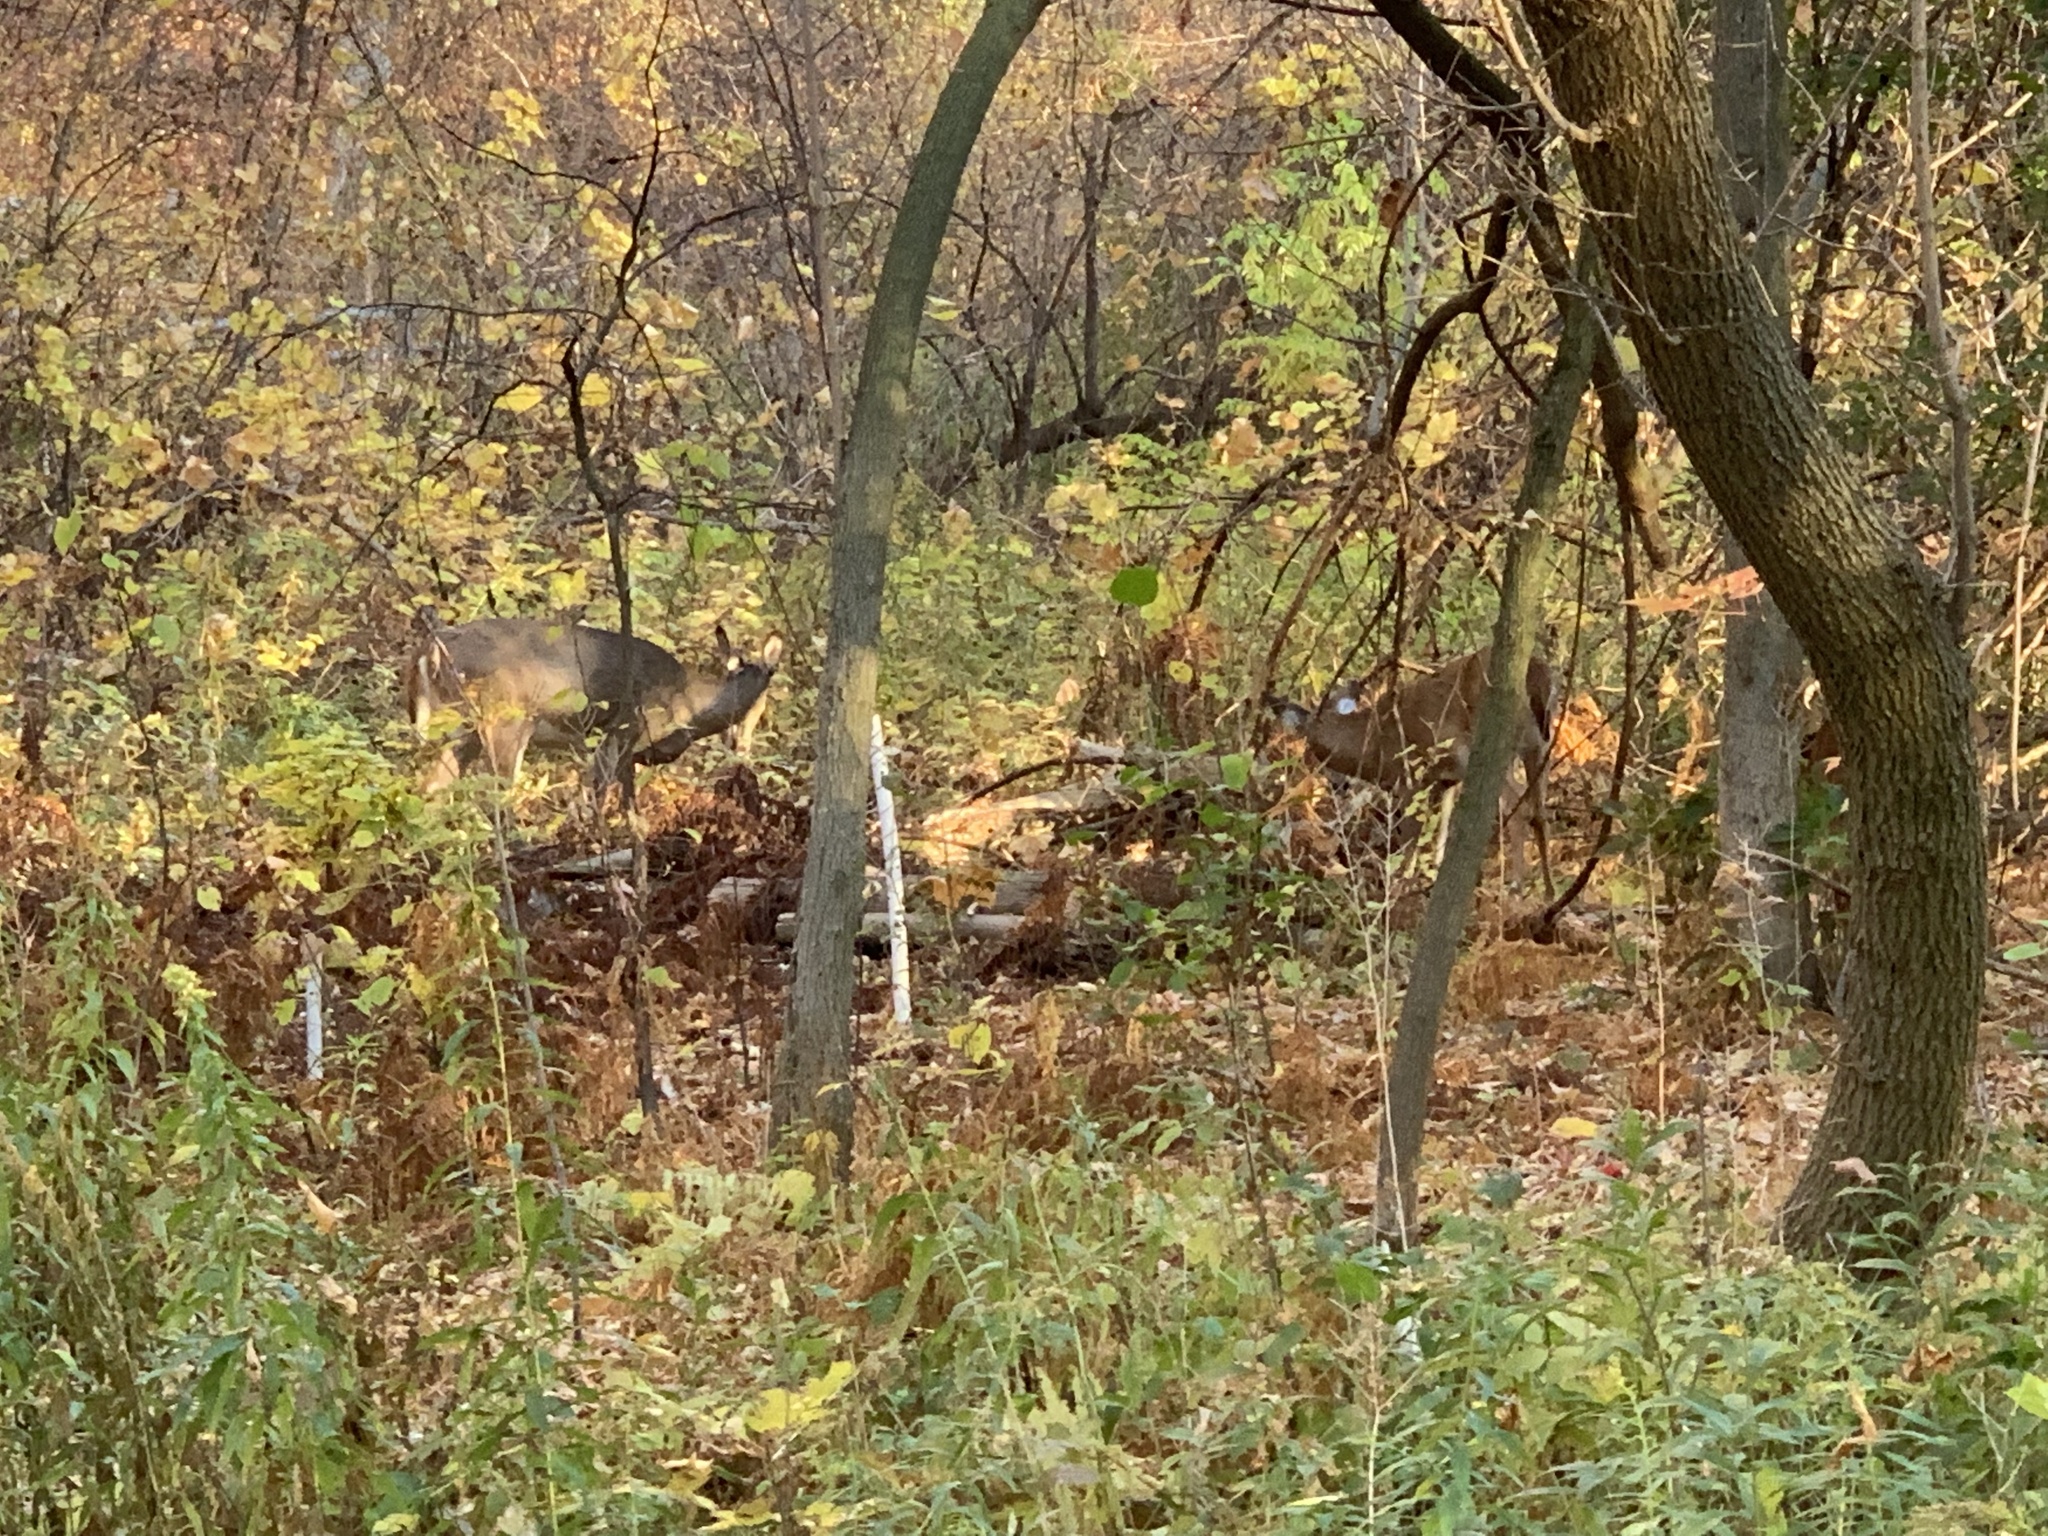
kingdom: Animalia
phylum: Chordata
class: Mammalia
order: Artiodactyla
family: Cervidae
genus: Odocoileus
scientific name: Odocoileus virginianus
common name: White-tailed deer
